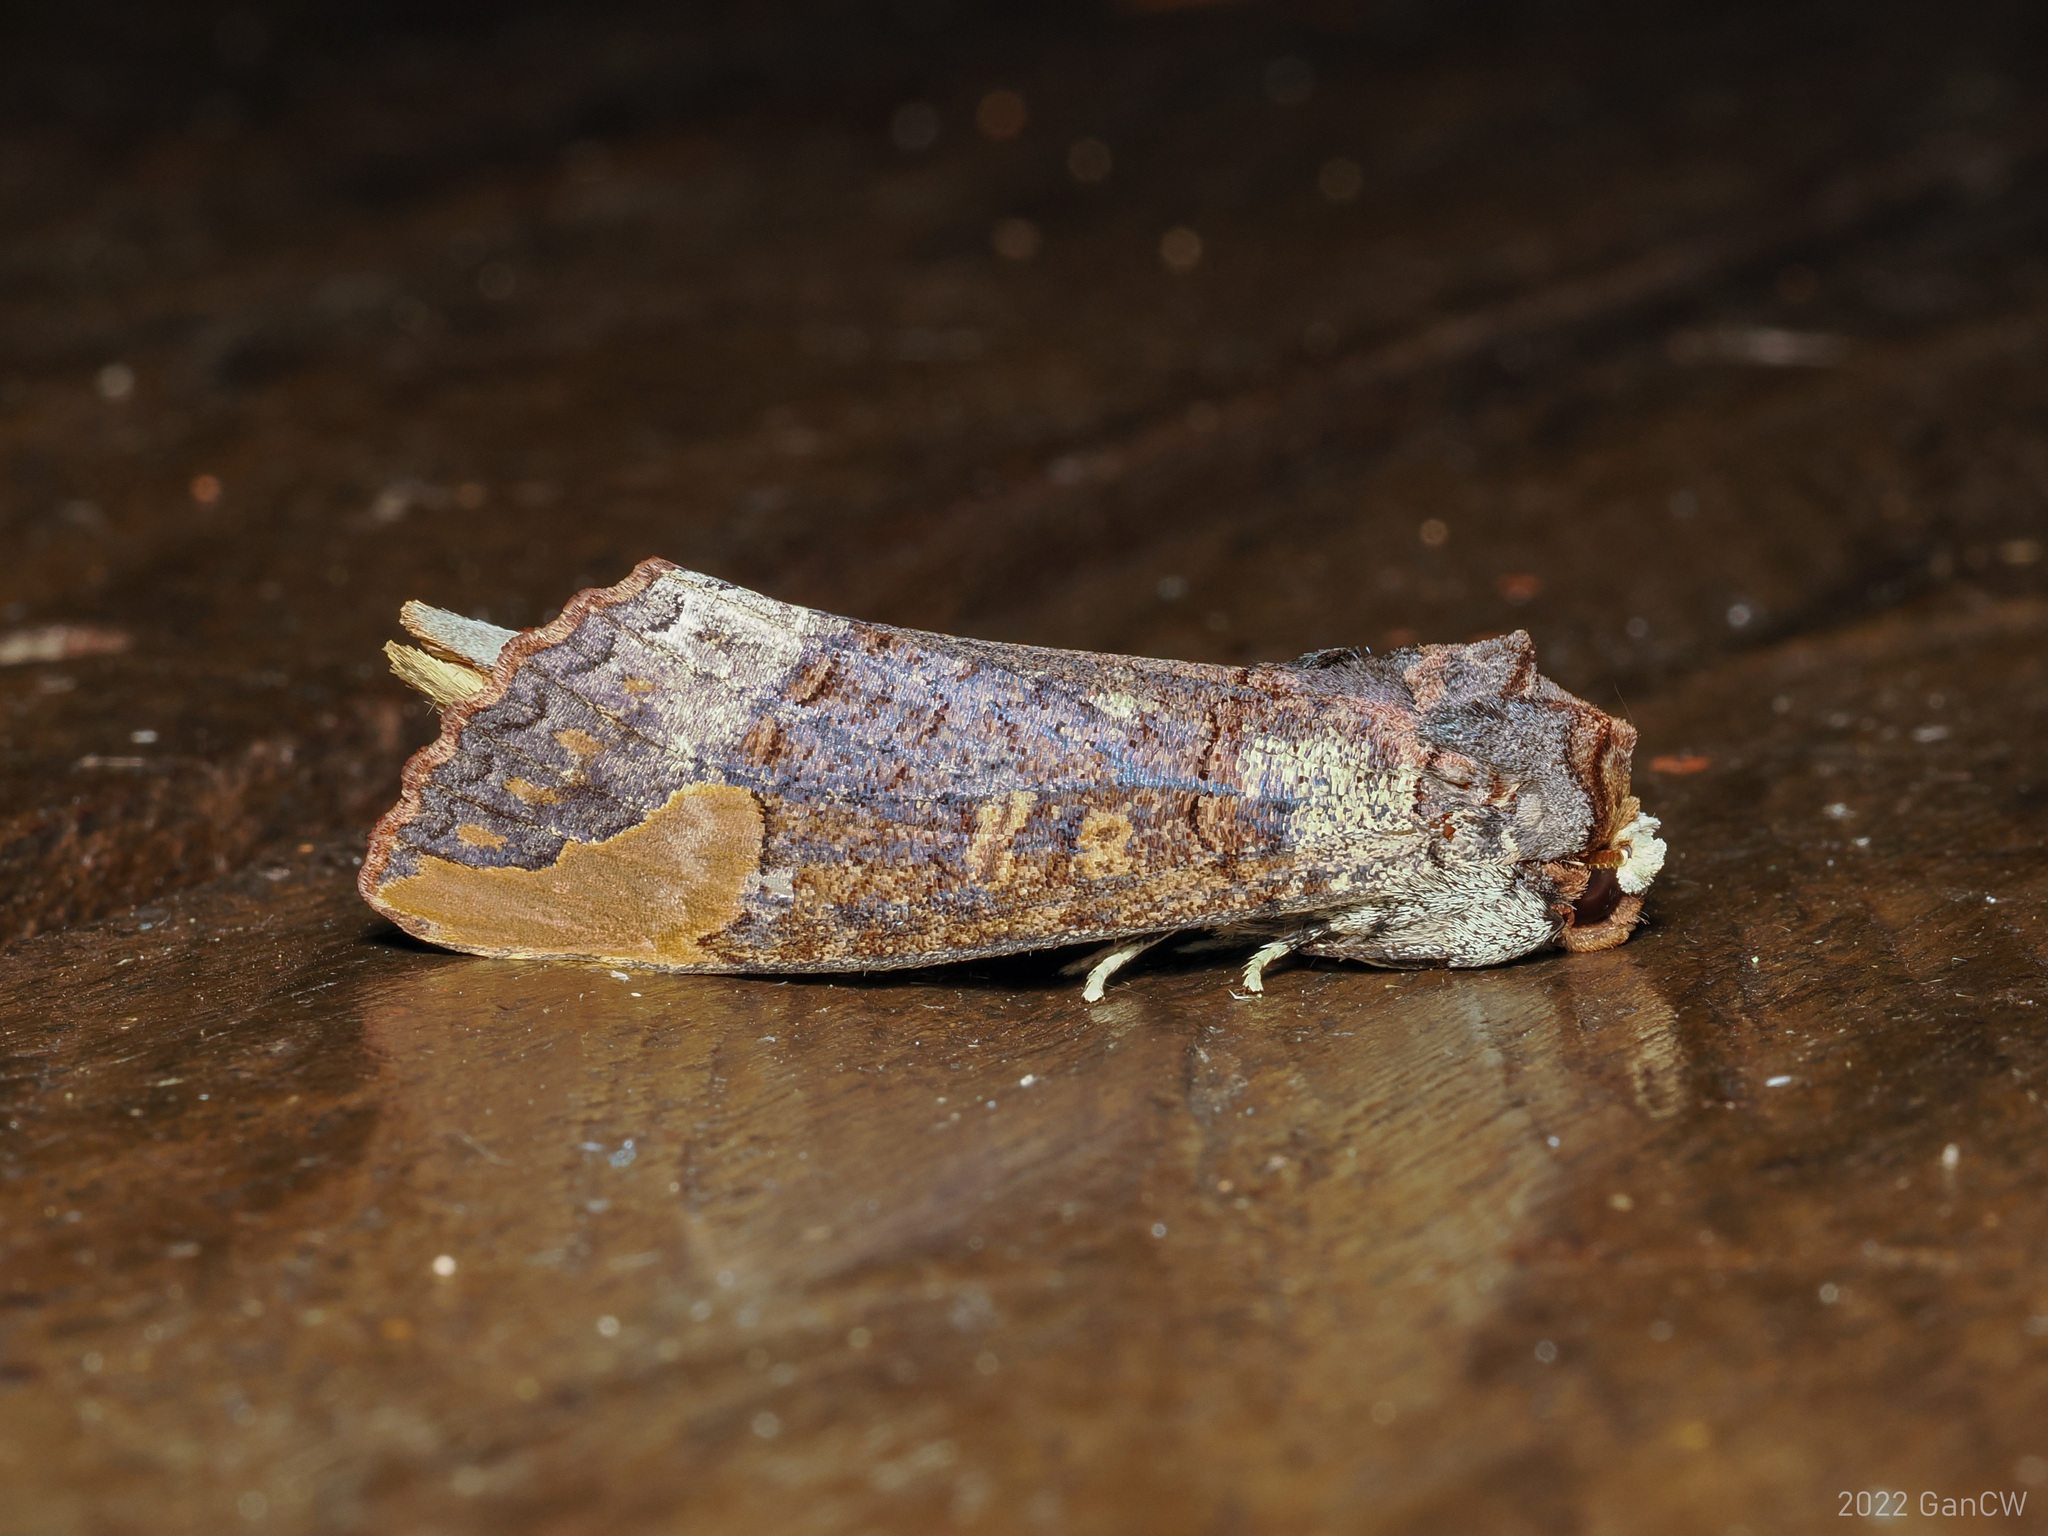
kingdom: Animalia
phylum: Arthropoda
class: Insecta
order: Lepidoptera
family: Notodontidae
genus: Phalera
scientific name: Phalera sundana
